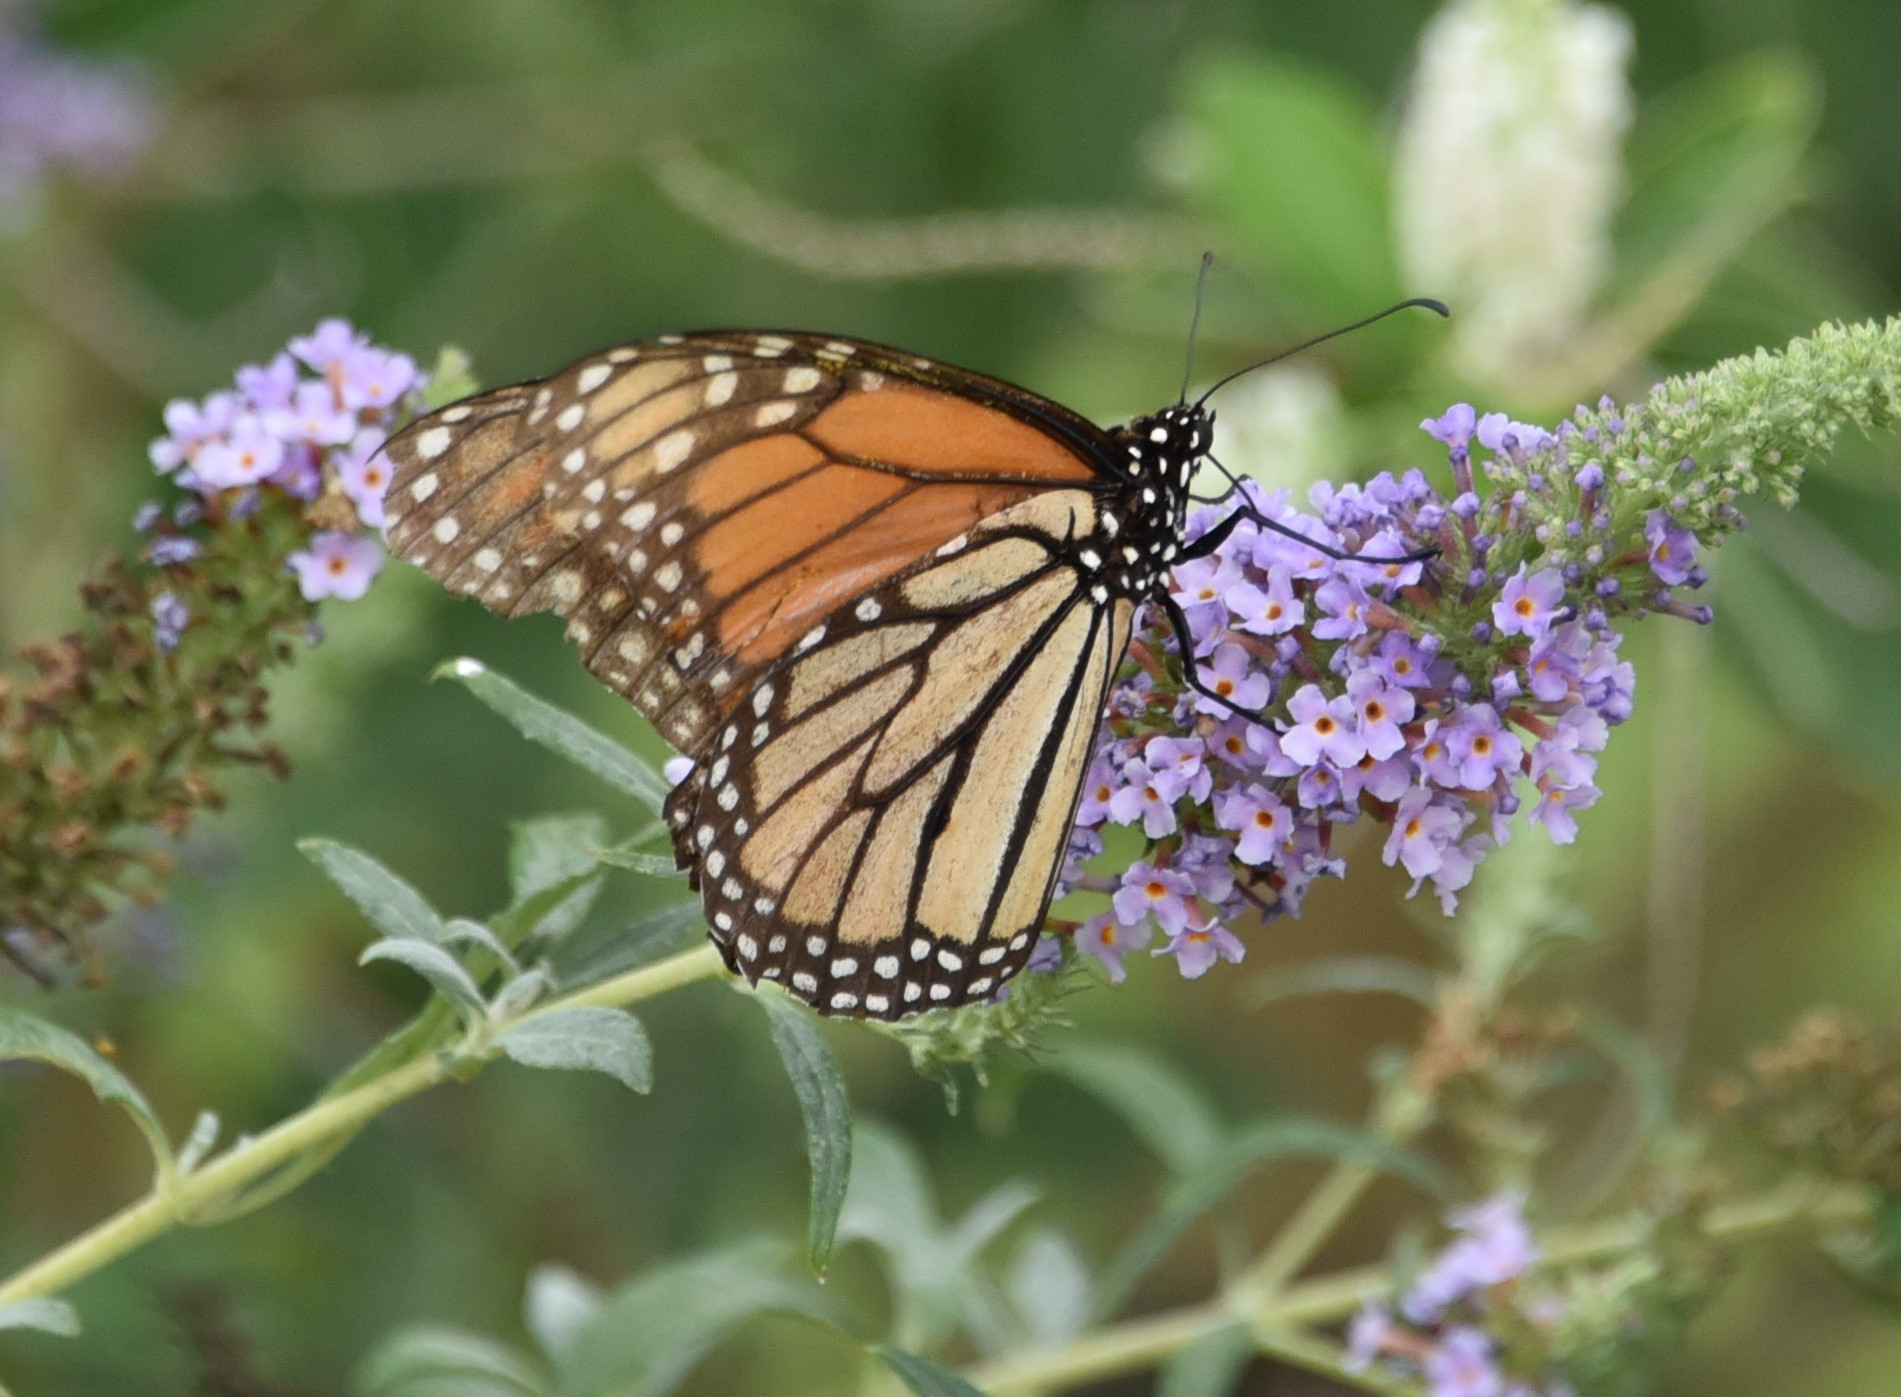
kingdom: Animalia
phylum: Arthropoda
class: Insecta
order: Lepidoptera
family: Nymphalidae
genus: Danaus
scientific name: Danaus plexippus
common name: Monarch
